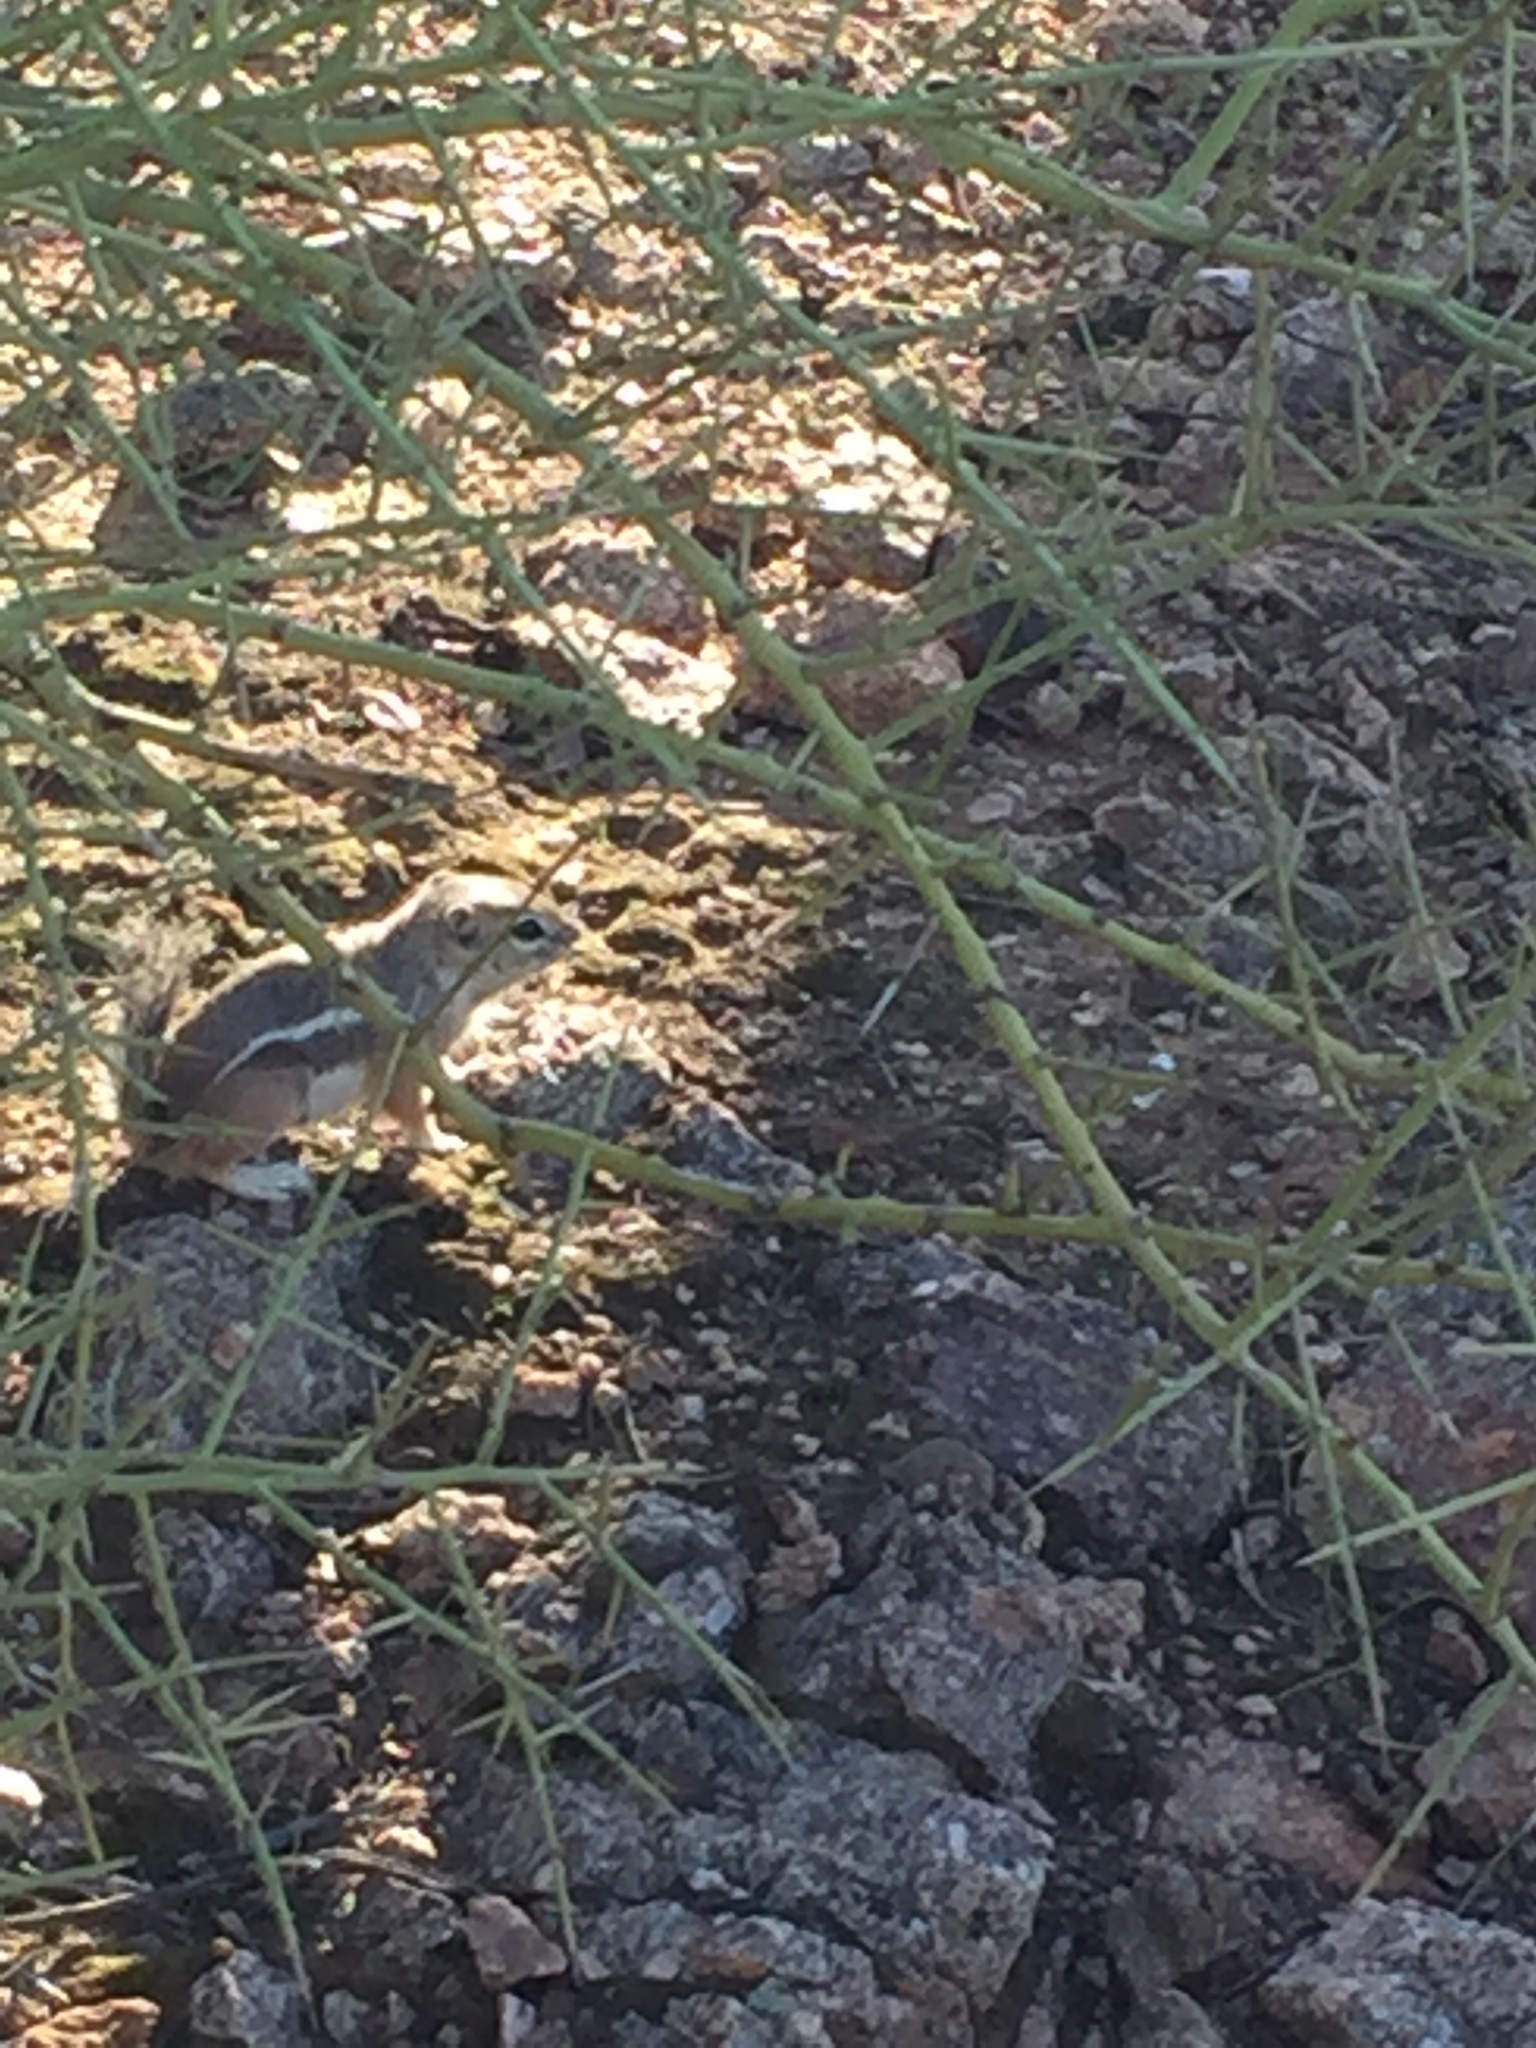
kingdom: Animalia
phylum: Chordata
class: Mammalia
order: Rodentia
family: Sciuridae
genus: Ammospermophilus
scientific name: Ammospermophilus harrisii
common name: Harris's antelope squirrel
